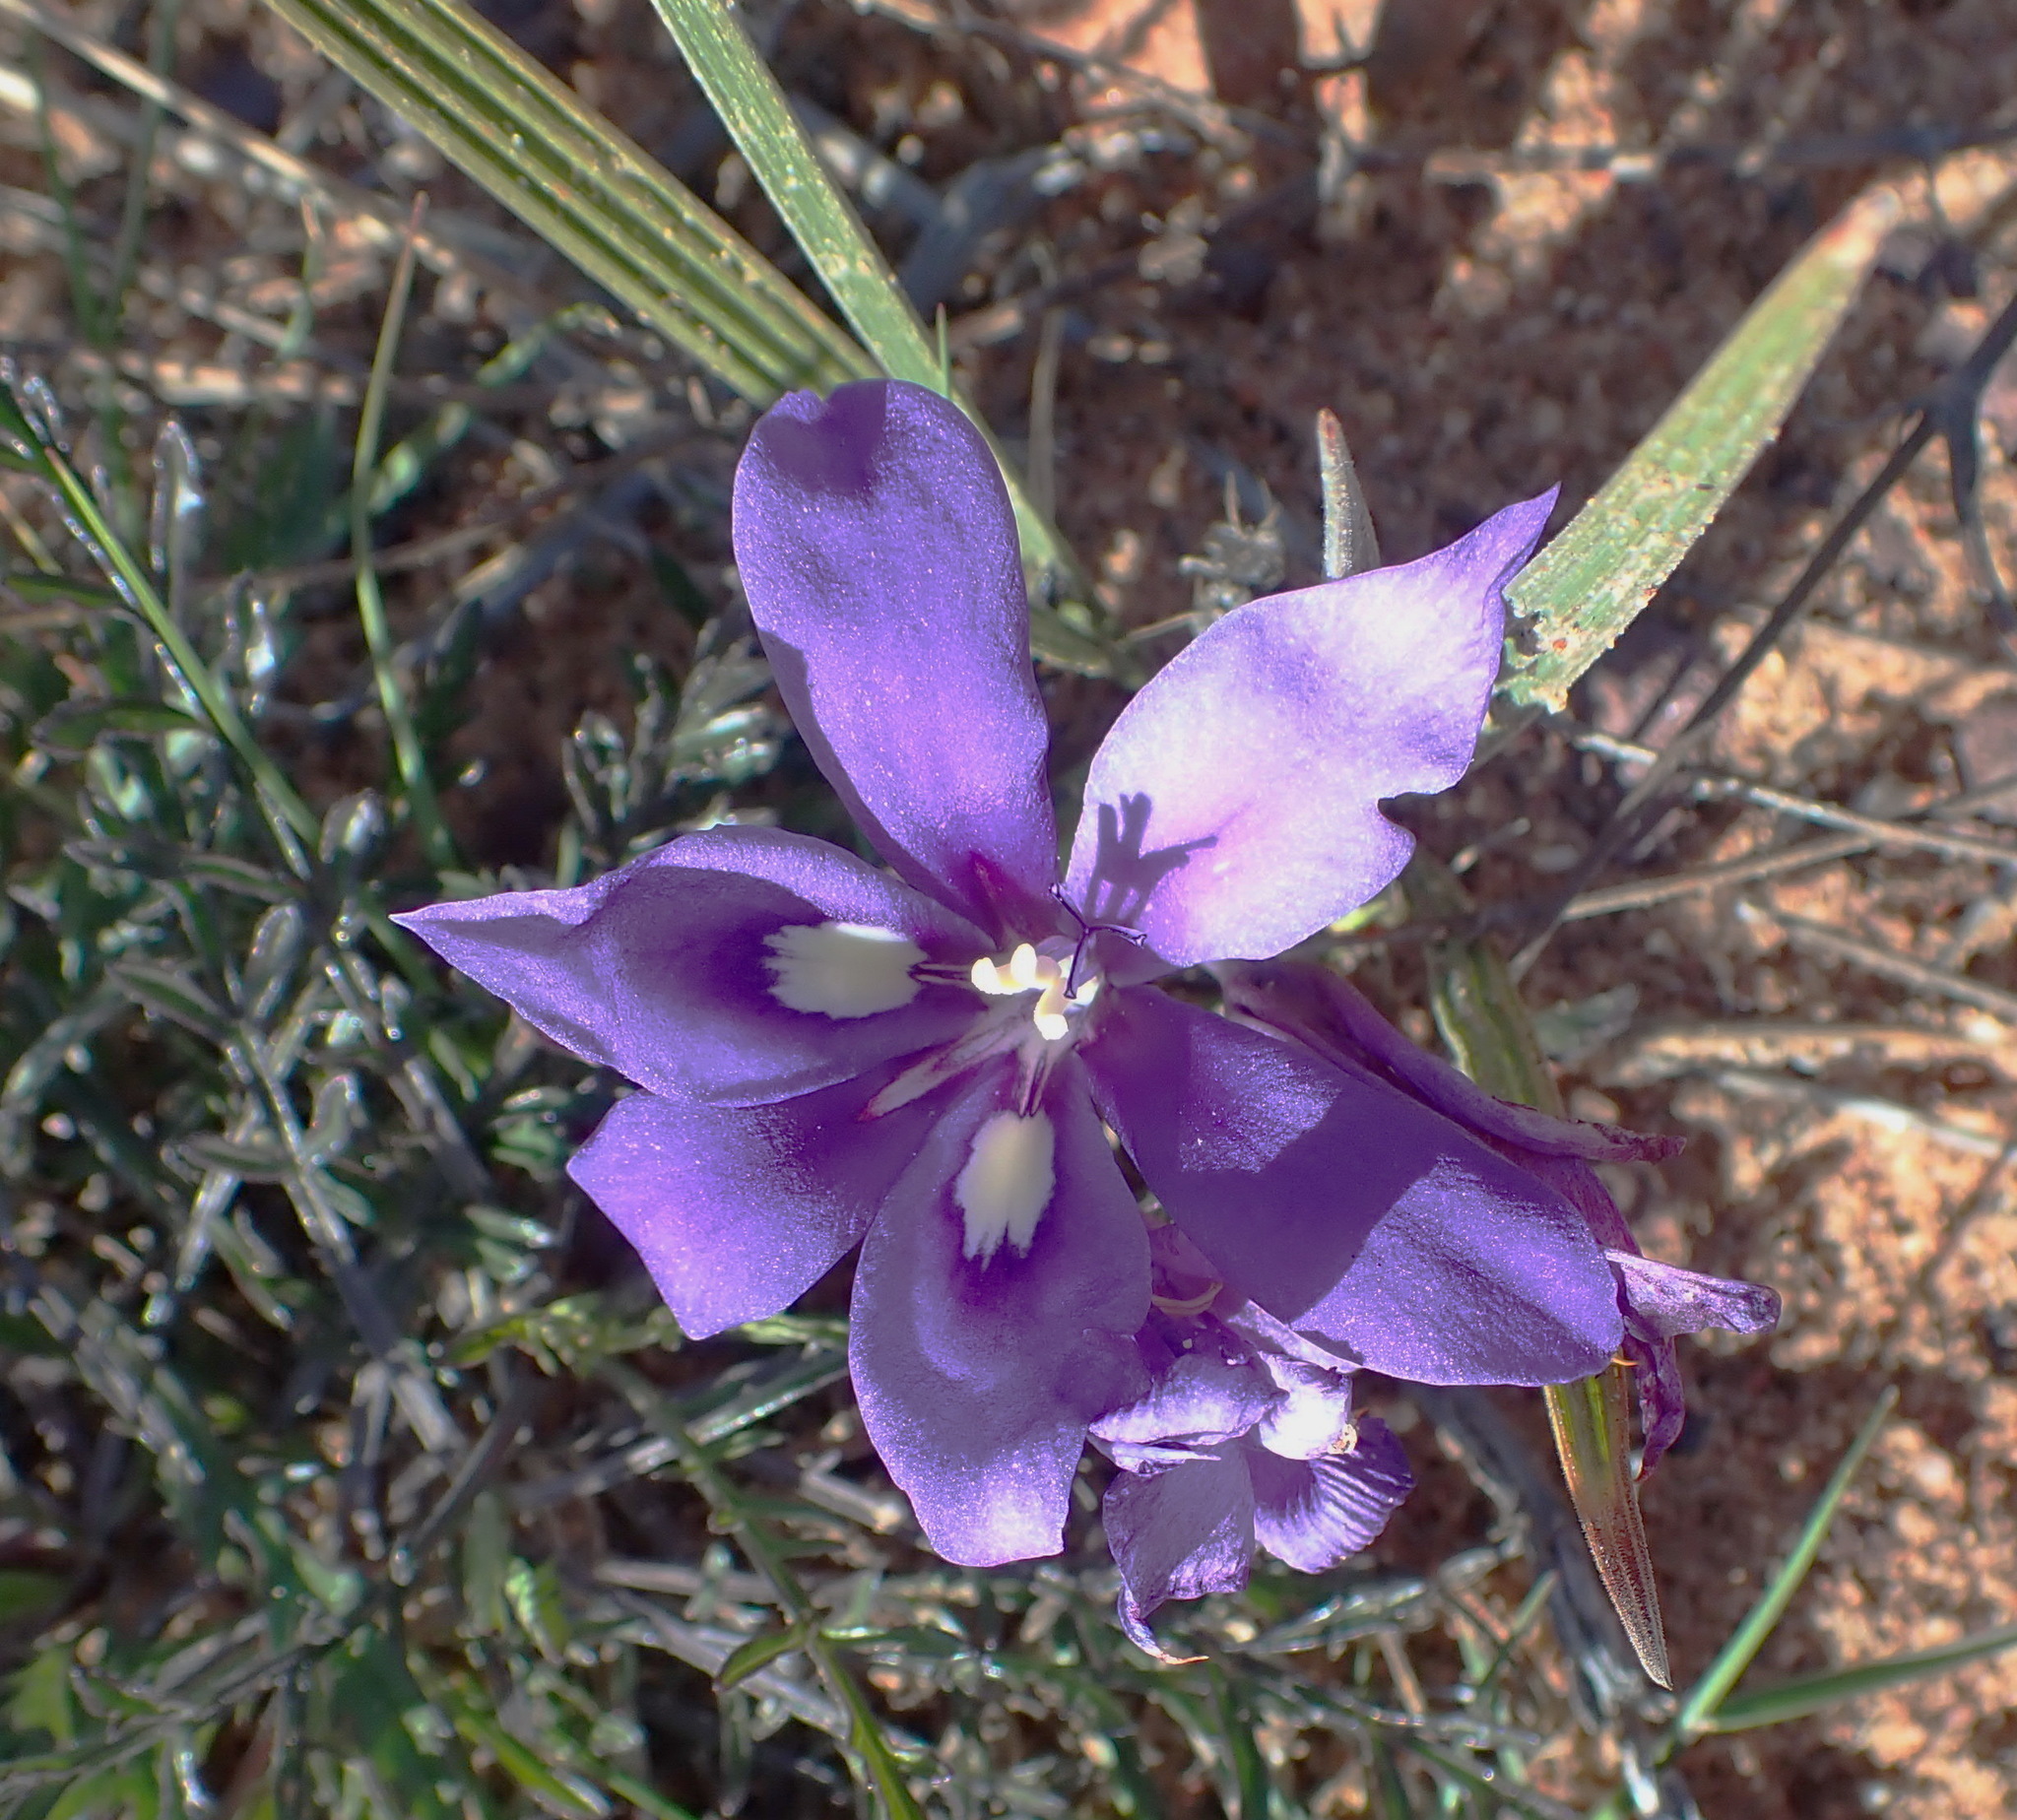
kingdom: Plantae
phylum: Tracheophyta
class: Liliopsida
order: Asparagales
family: Iridaceae
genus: Babiana
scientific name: Babiana sambucina
